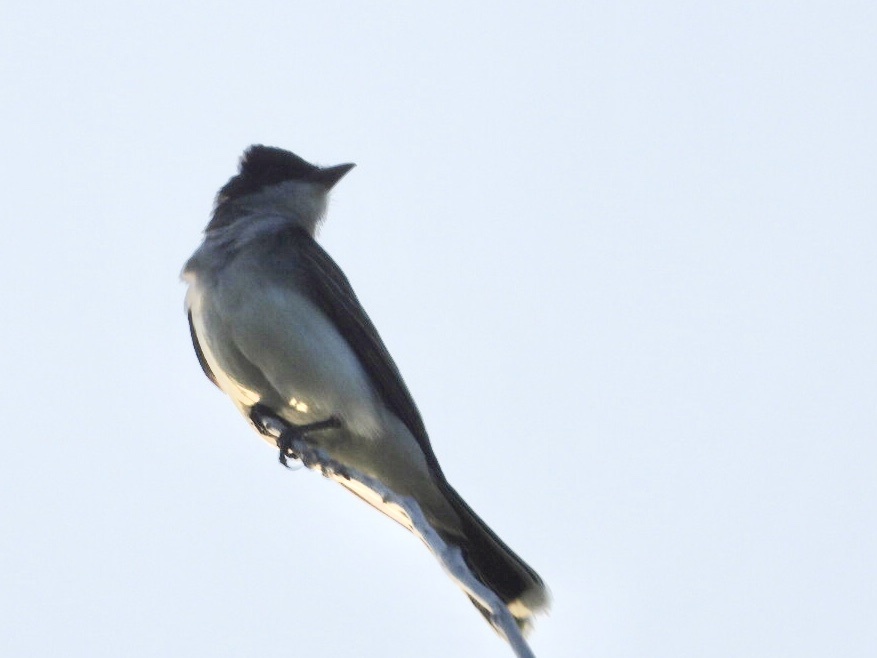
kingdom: Animalia
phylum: Chordata
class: Aves
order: Passeriformes
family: Tyrannidae
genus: Tyrannus
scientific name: Tyrannus tyrannus
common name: Eastern kingbird
